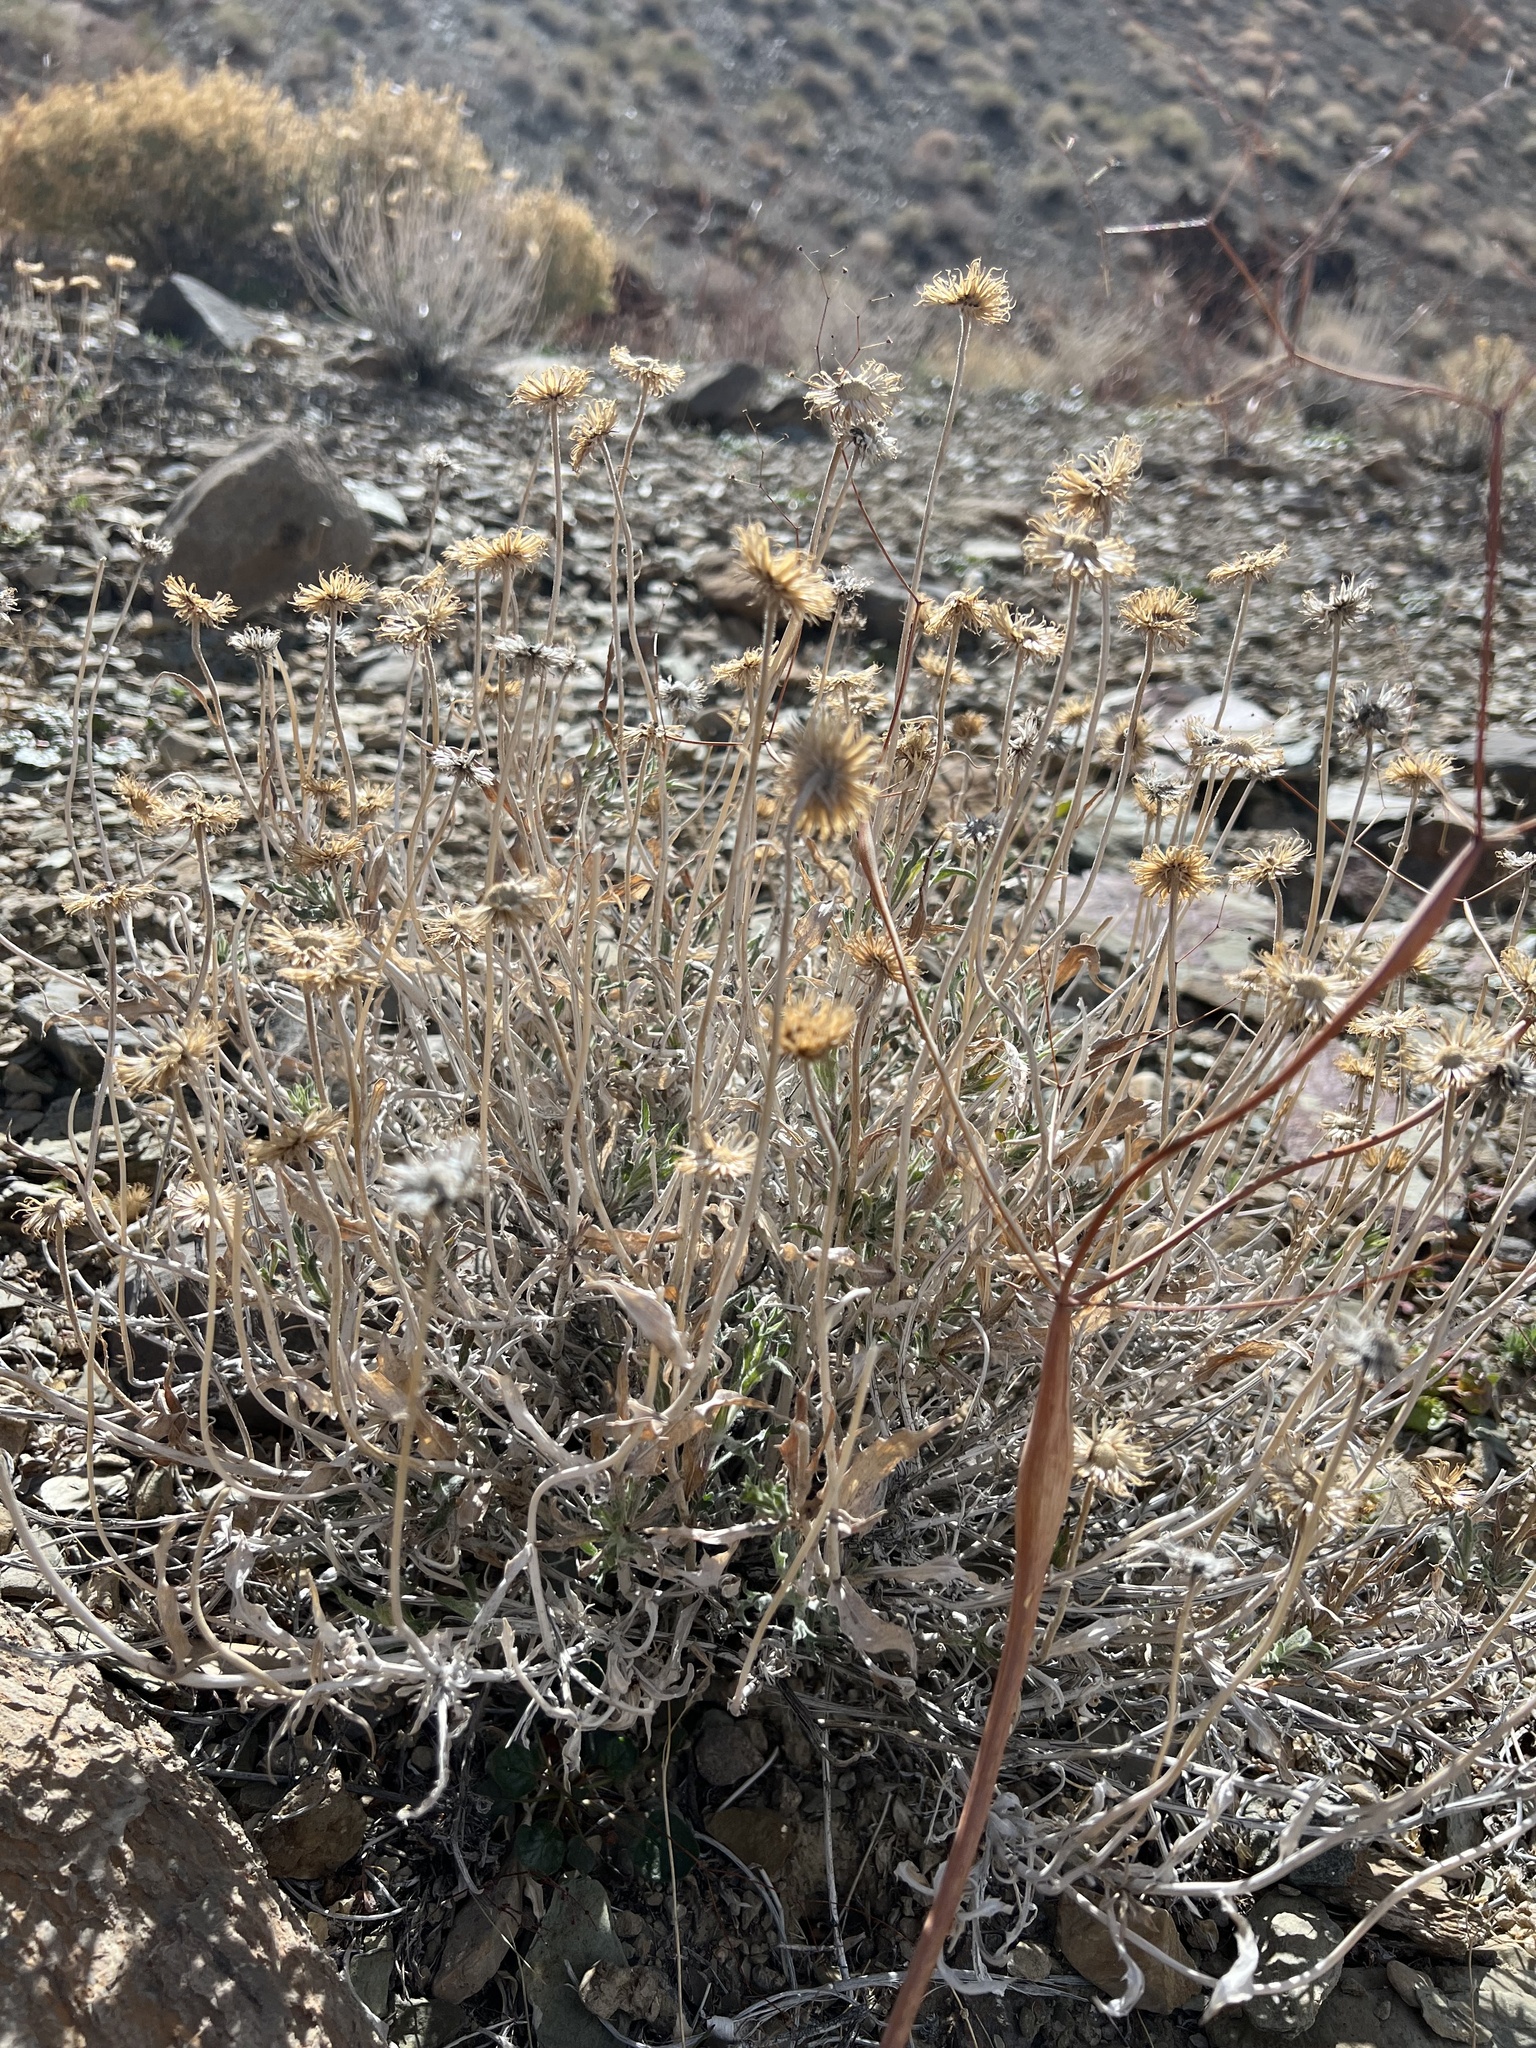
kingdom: Plantae
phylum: Tracheophyta
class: Magnoliopsida
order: Asterales
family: Asteraceae
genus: Xylorhiza
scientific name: Xylorhiza tortifolia
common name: Hurt-leaf woody-aster
